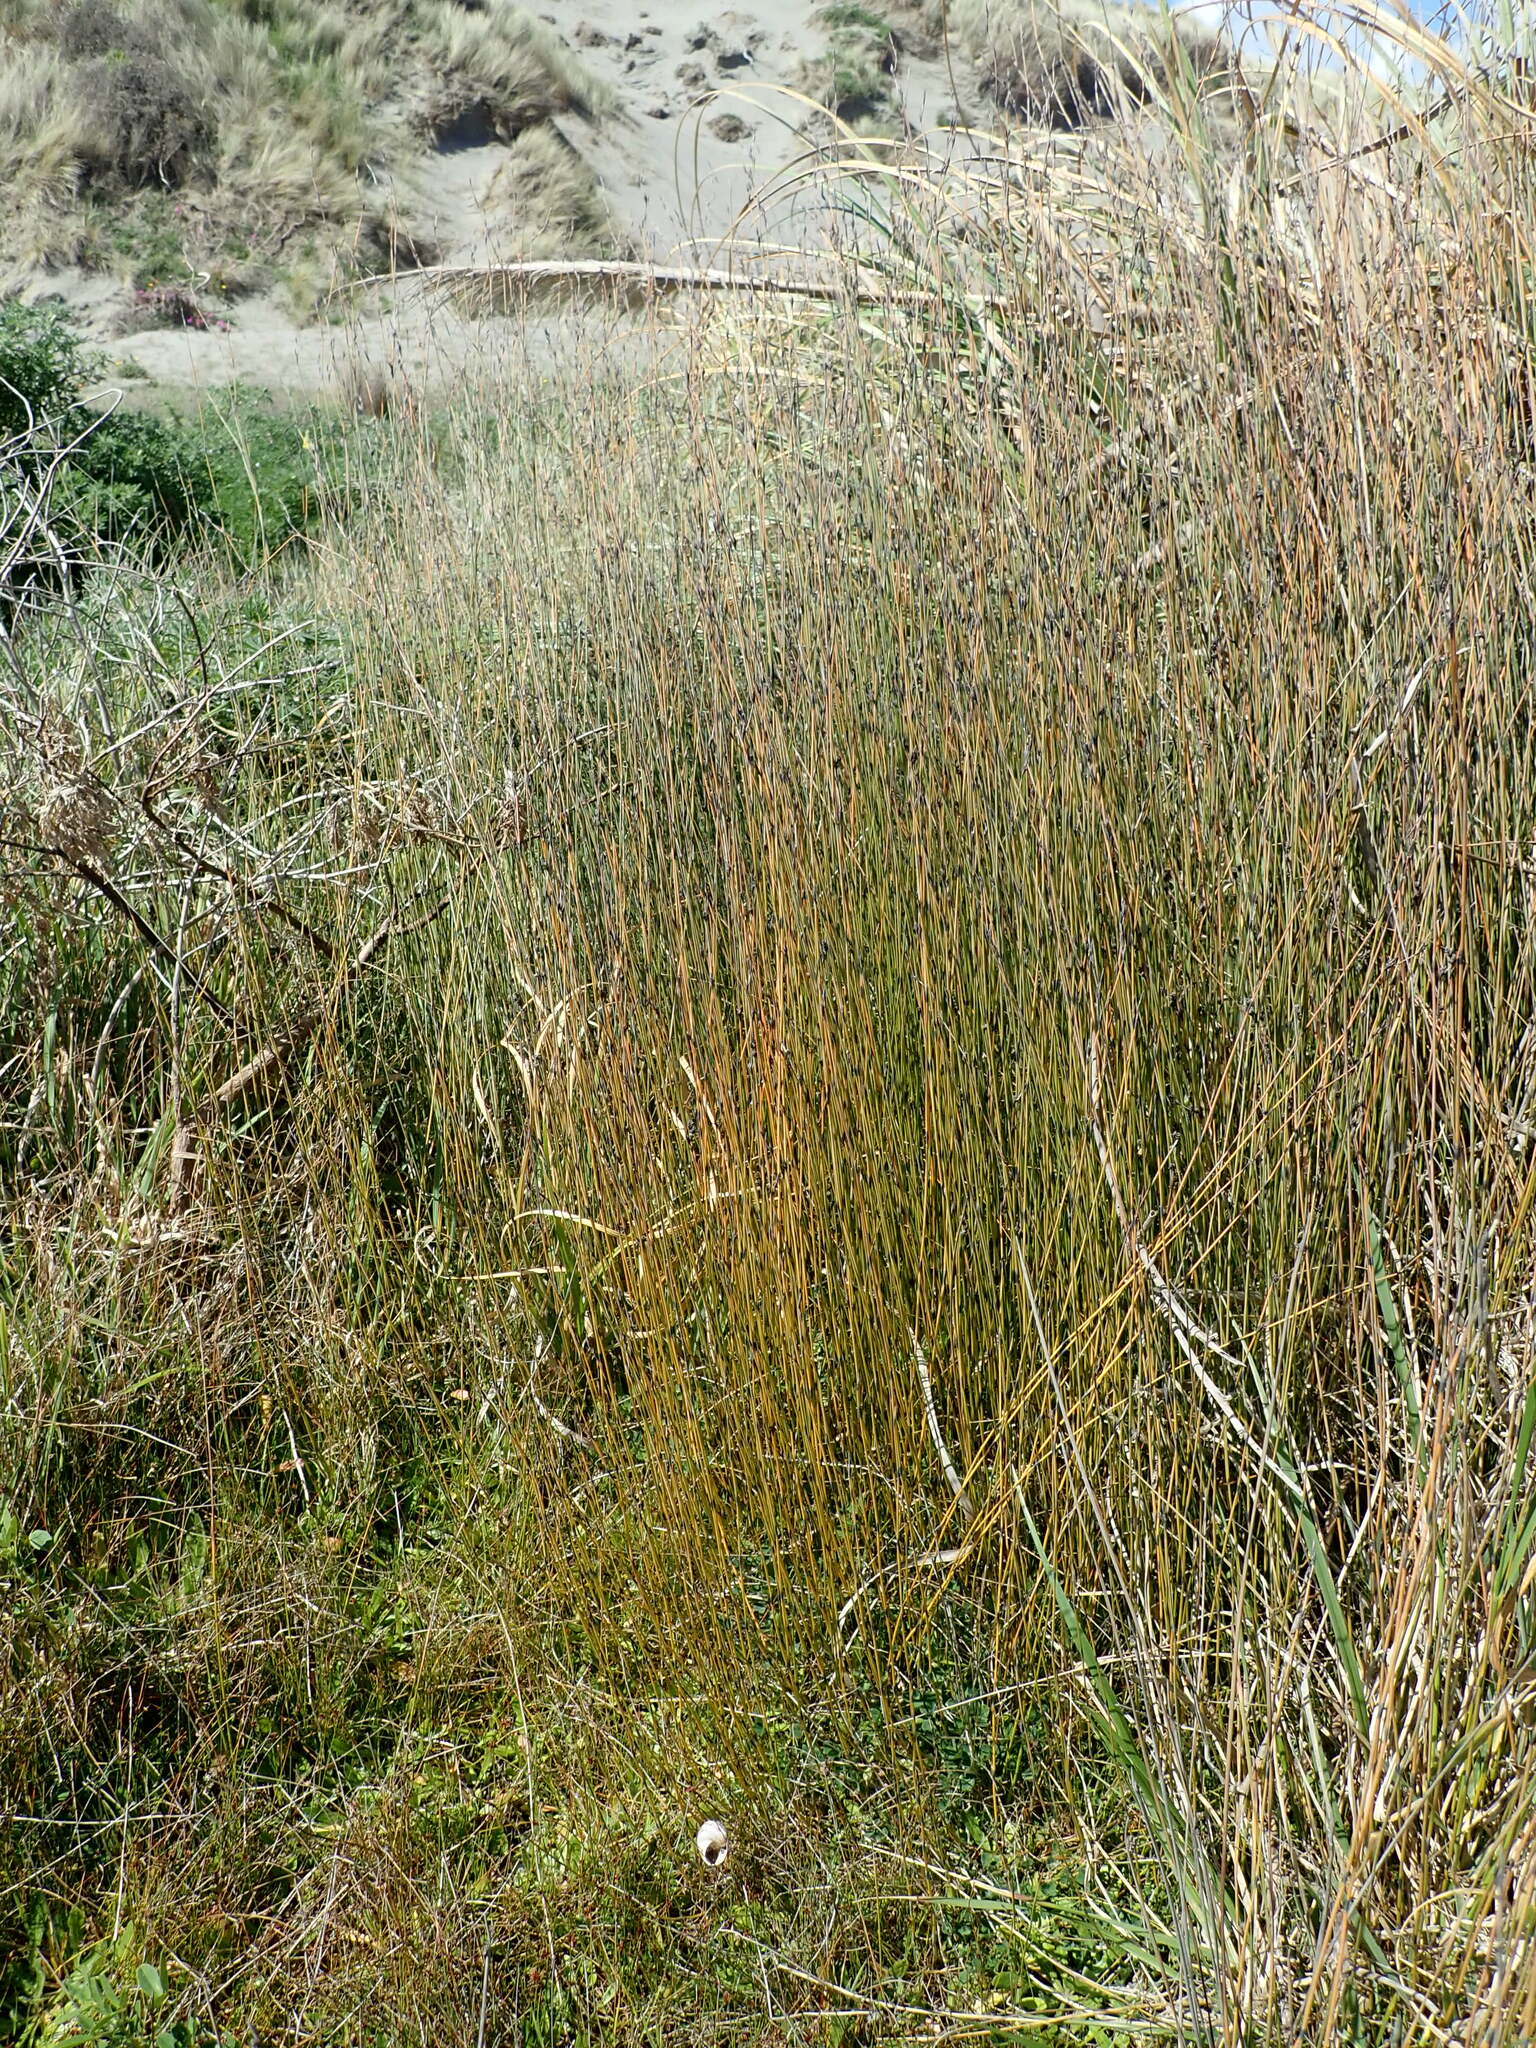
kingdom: Plantae
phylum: Tracheophyta
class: Liliopsida
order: Poales
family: Restionaceae
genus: Apodasmia
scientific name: Apodasmia similis
